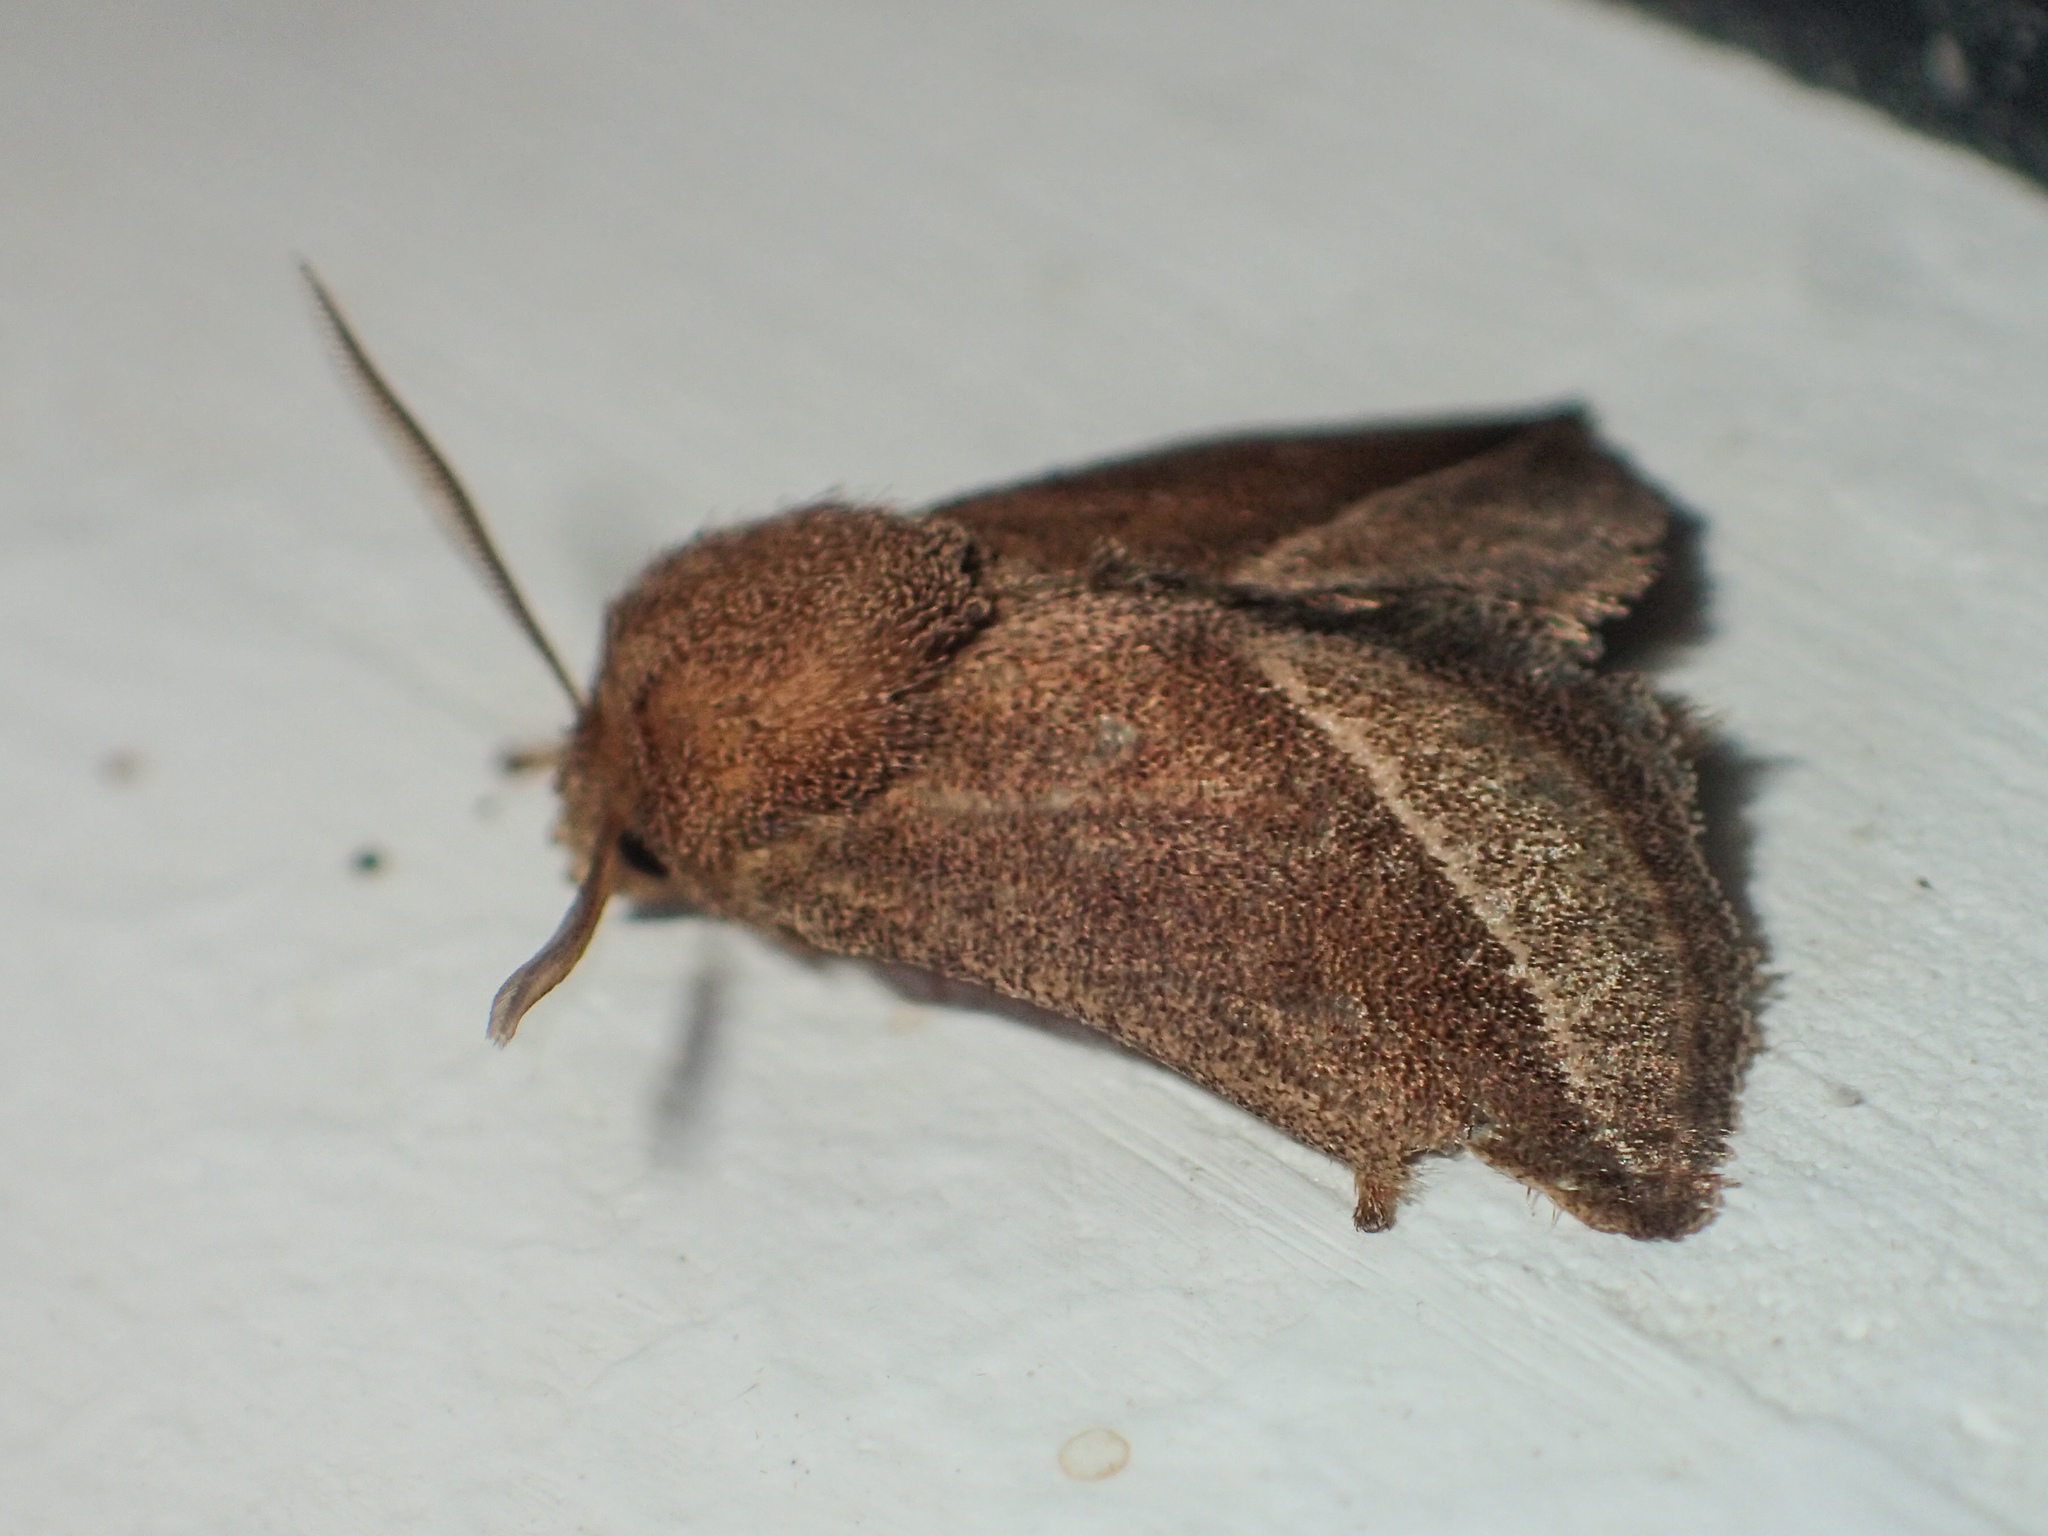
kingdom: Animalia
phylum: Arthropoda
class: Insecta
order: Lepidoptera
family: Limacodidae
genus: Oxyplax
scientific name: Oxyplax pallivitta
